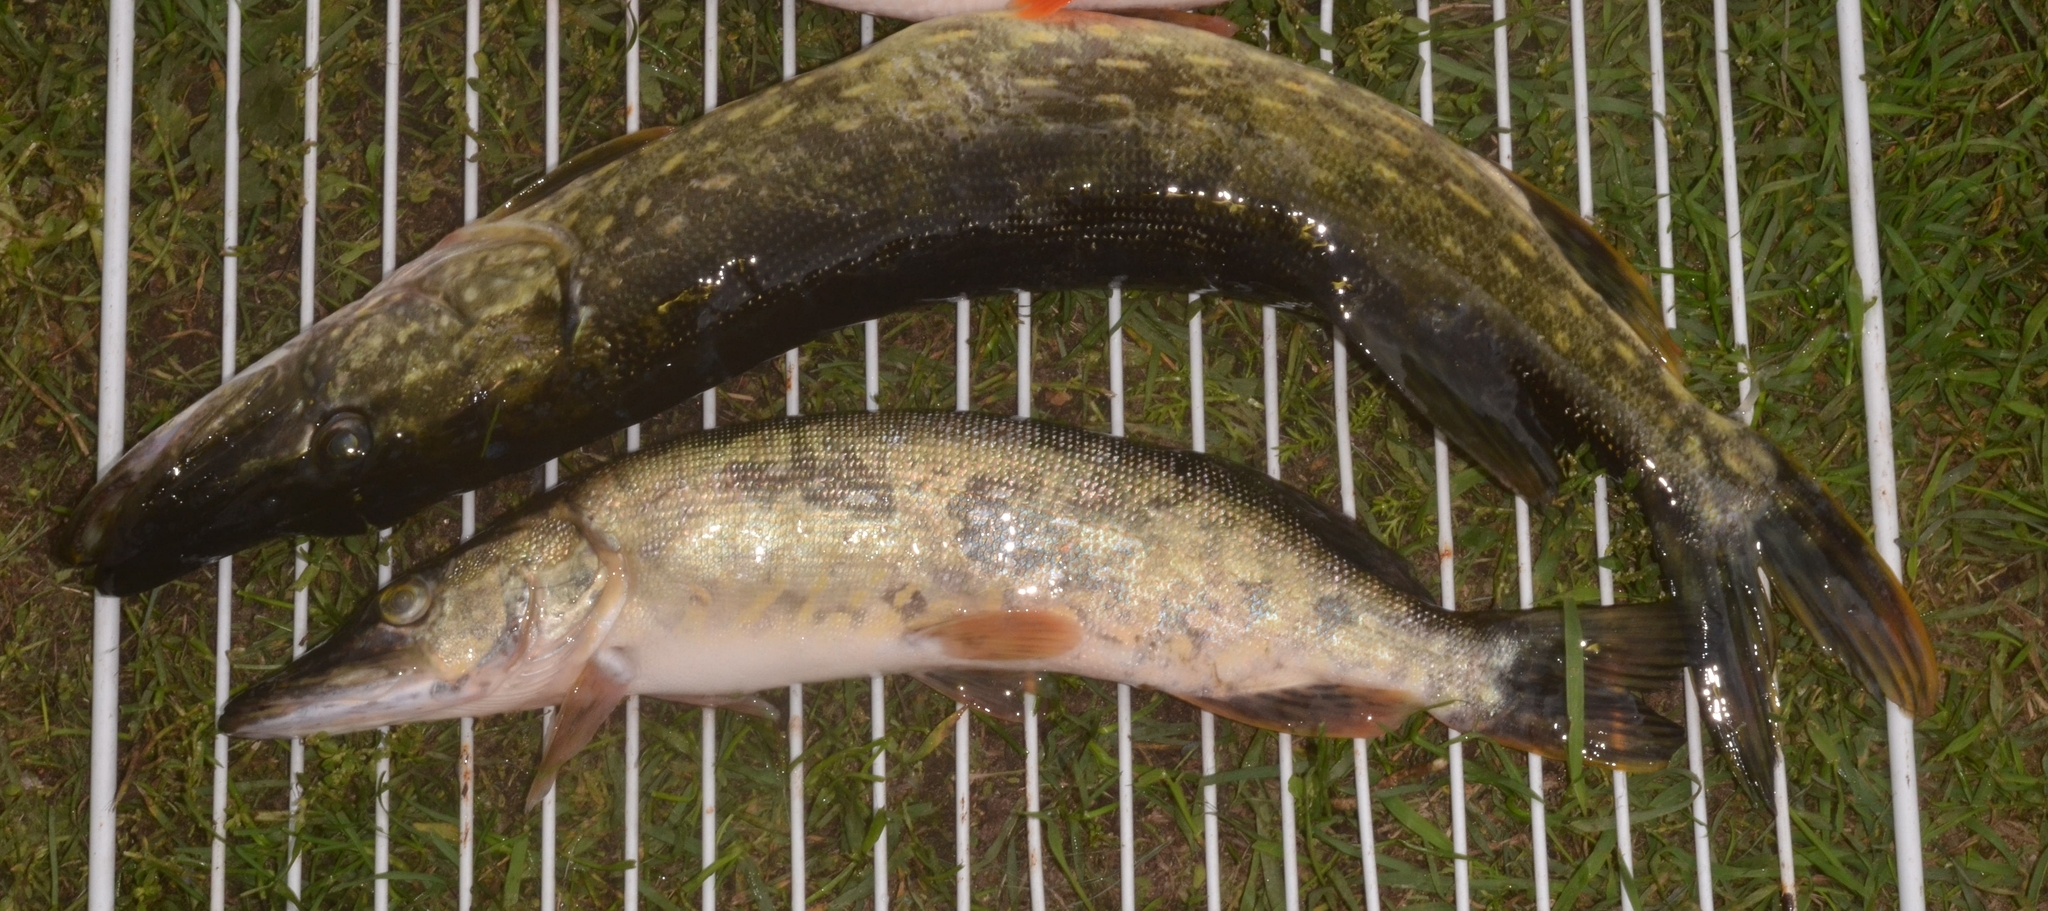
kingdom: Animalia
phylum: Chordata
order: Esociformes
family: Esocidae
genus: Esox
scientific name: Esox lucius
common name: Northern pike
